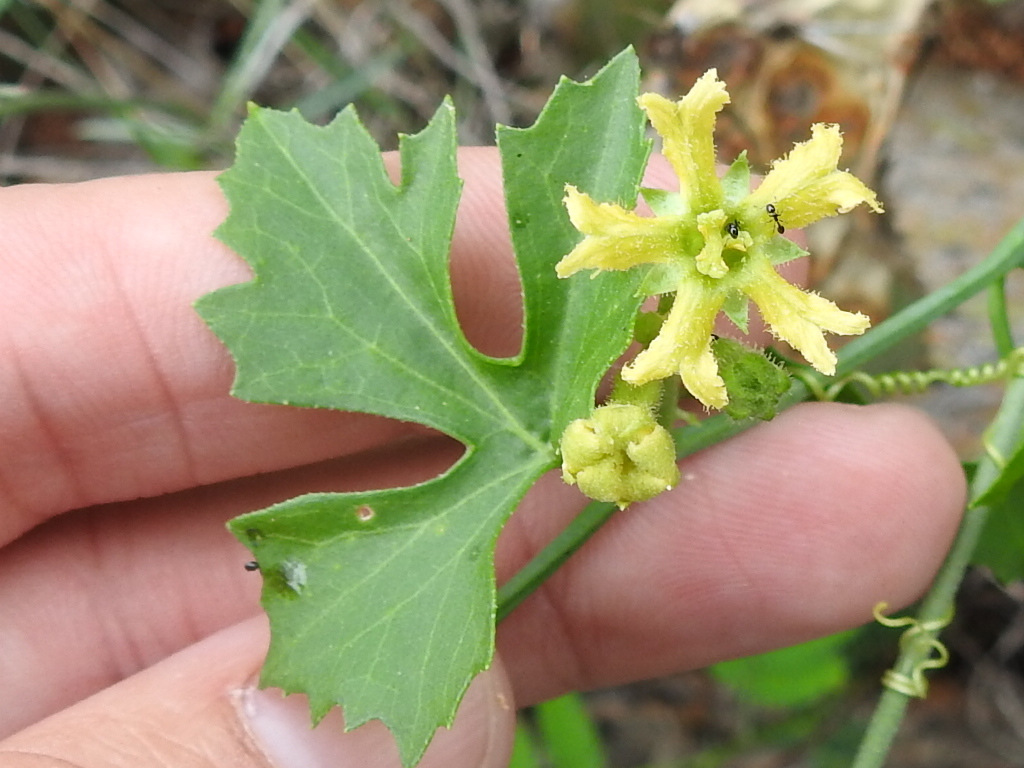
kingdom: Plantae
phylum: Tracheophyta
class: Magnoliopsida
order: Cucurbitales
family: Cucurbitaceae
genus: Ibervillea
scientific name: Ibervillea lindheimeri
